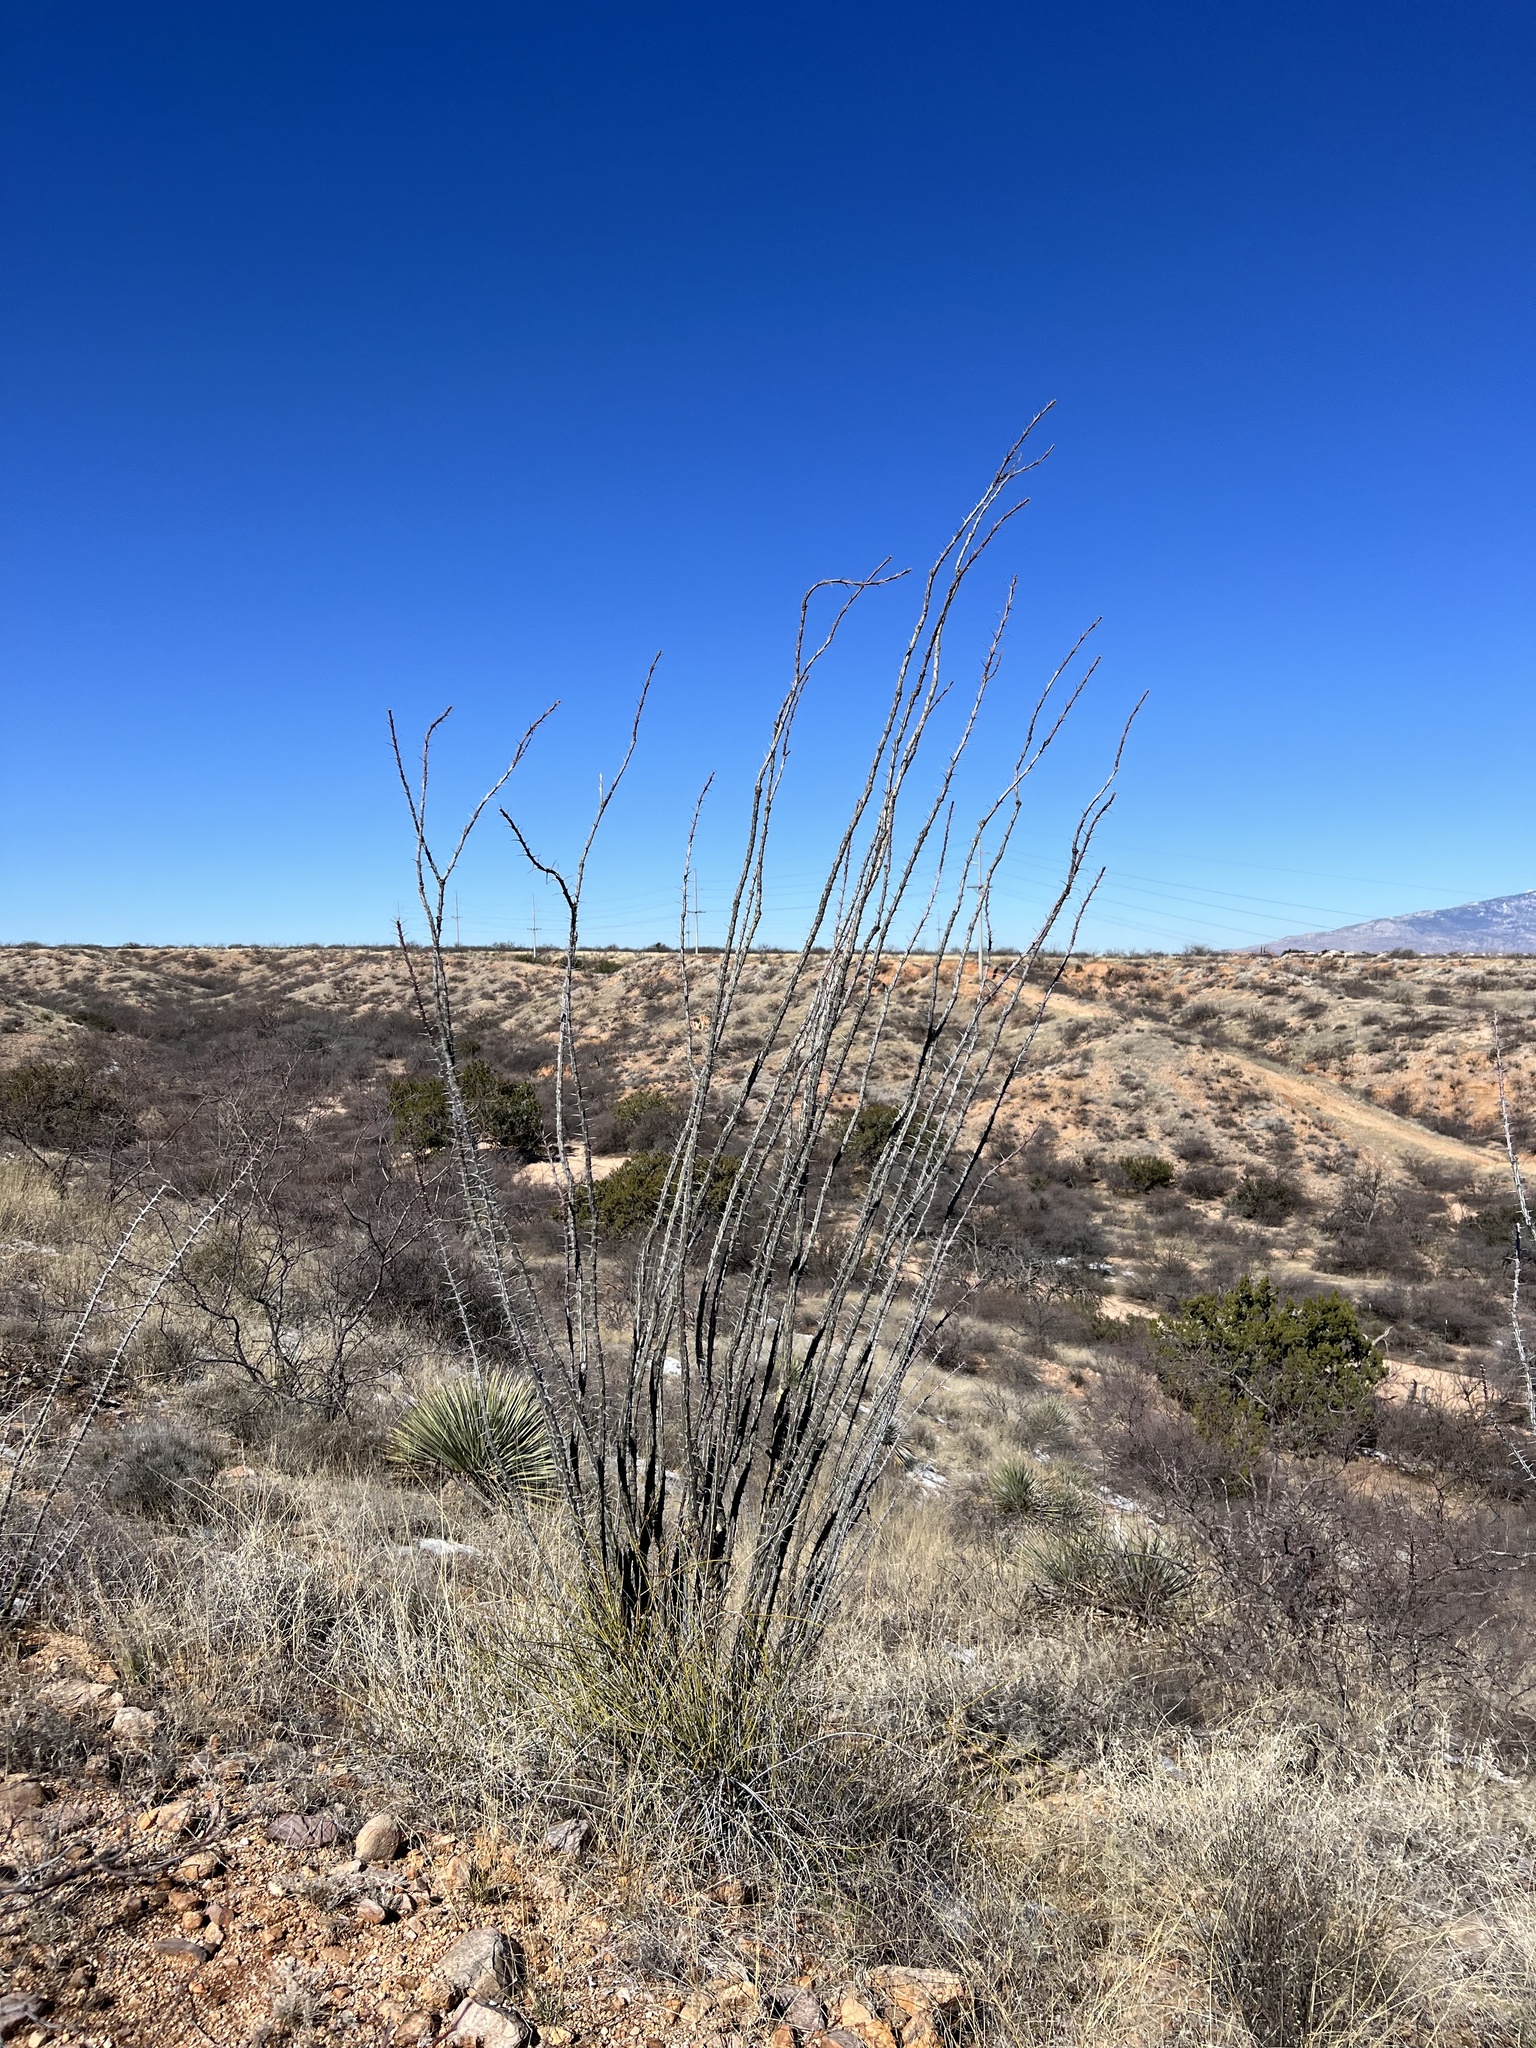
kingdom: Plantae
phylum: Tracheophyta
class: Magnoliopsida
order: Ericales
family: Fouquieriaceae
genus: Fouquieria
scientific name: Fouquieria splendens
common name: Vine-cactus
